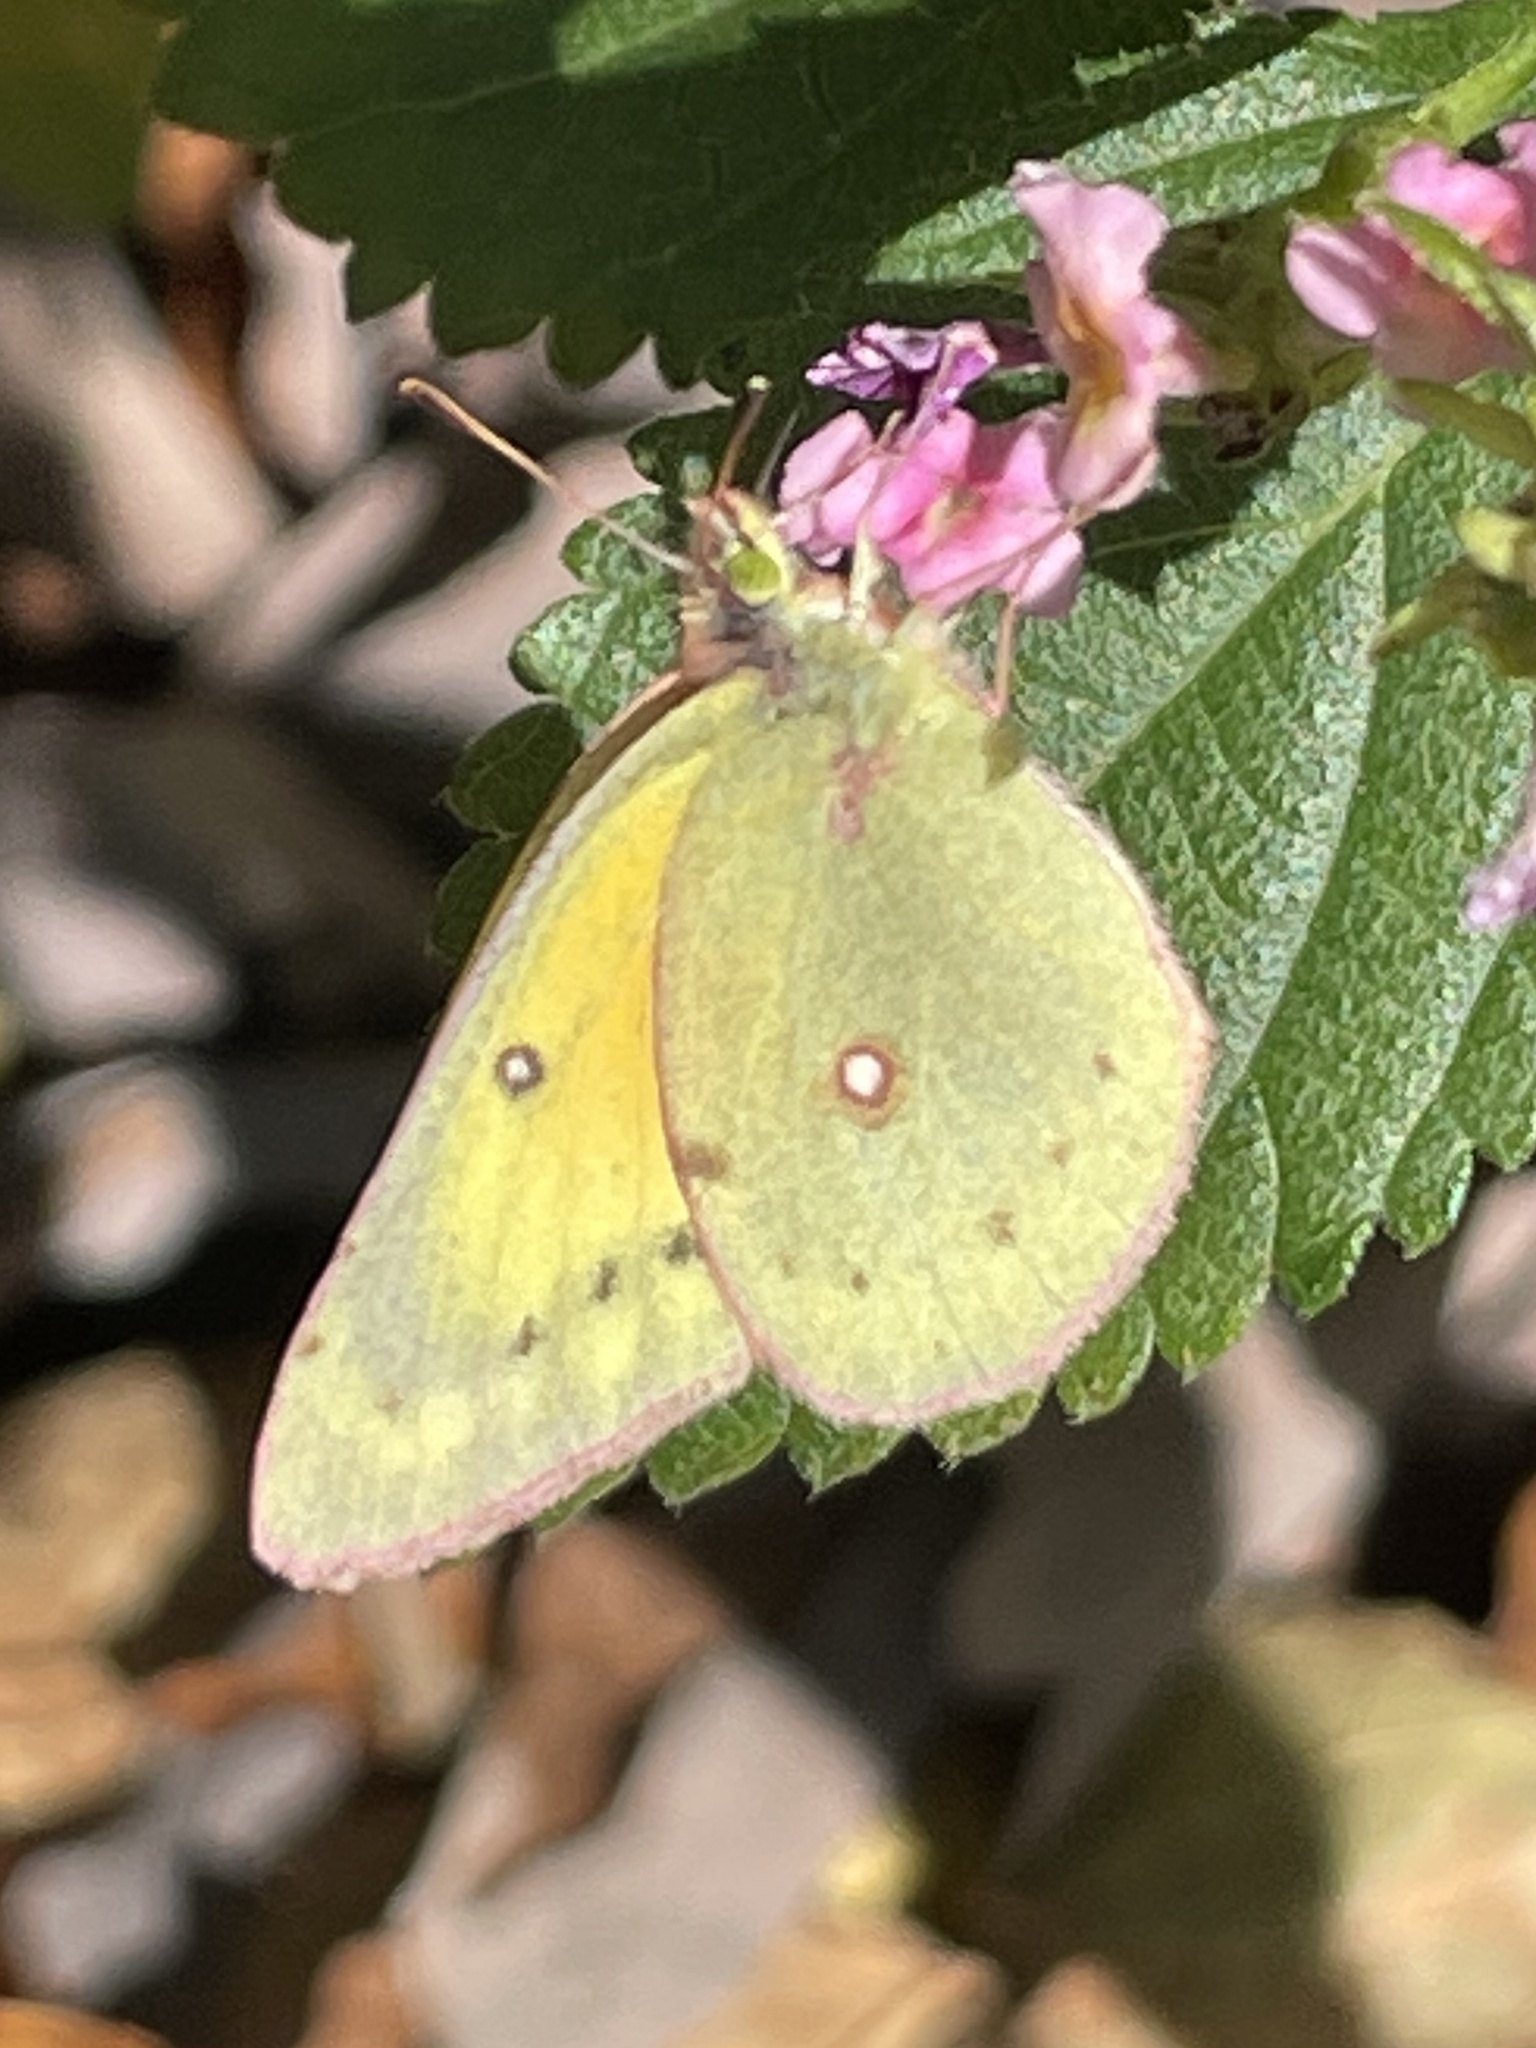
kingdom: Animalia
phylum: Arthropoda
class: Insecta
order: Lepidoptera
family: Pieridae
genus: Colias
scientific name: Colias eurytheme
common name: Alfalfa butterfly
